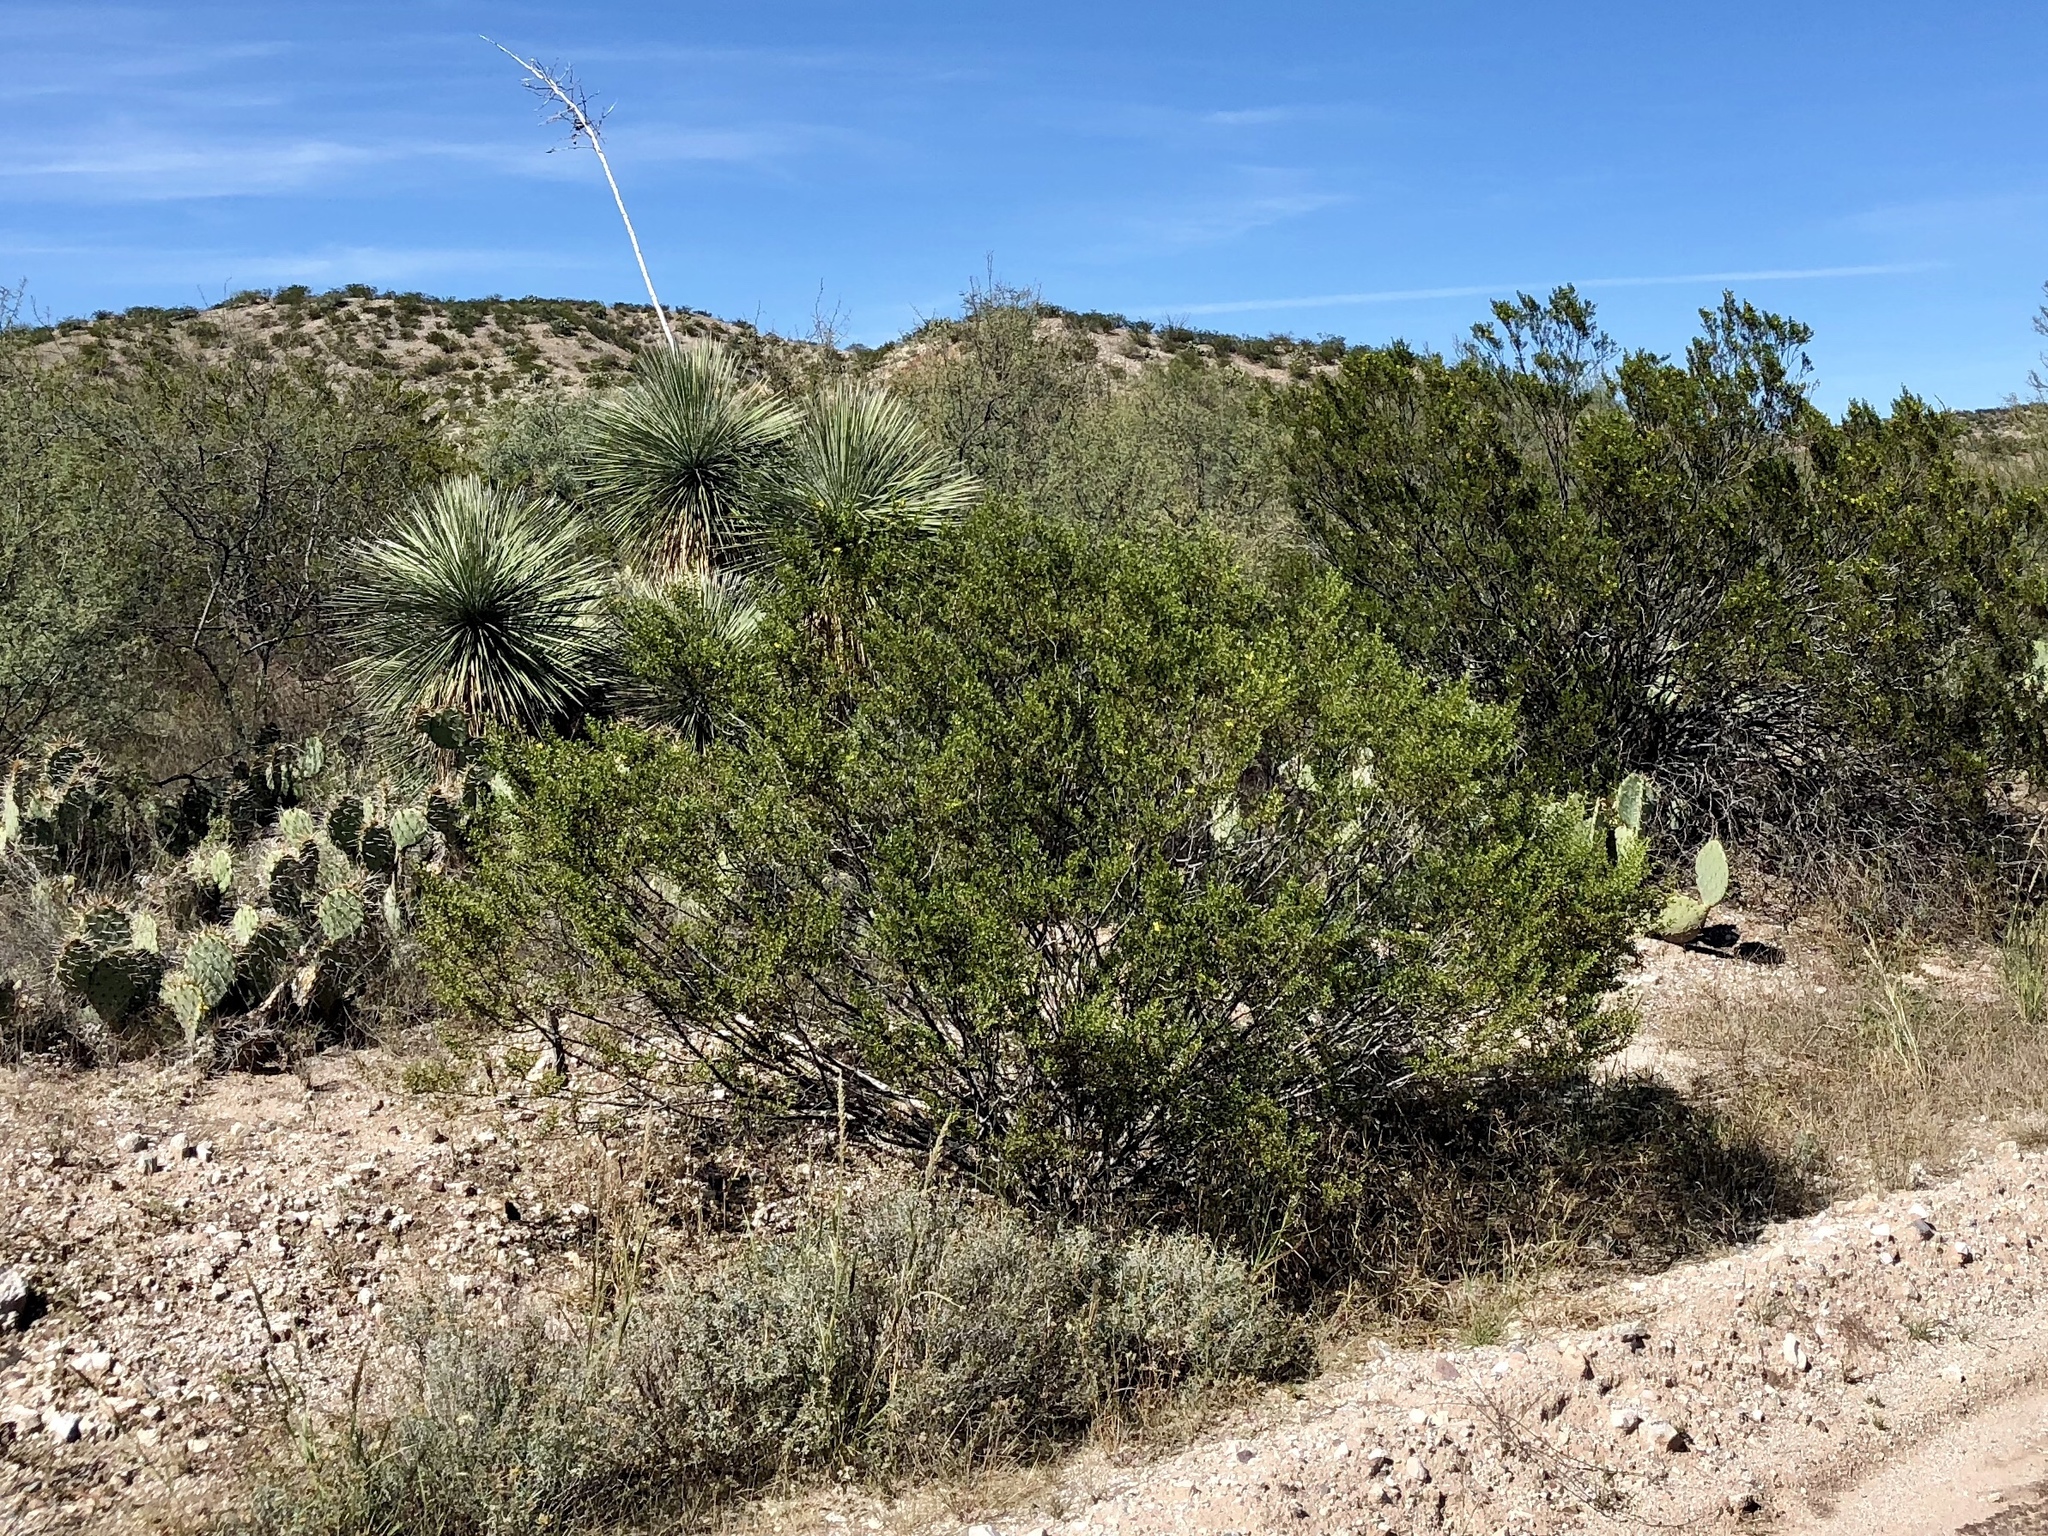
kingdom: Plantae
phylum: Tracheophyta
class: Magnoliopsida
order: Zygophyllales
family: Zygophyllaceae
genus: Larrea
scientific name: Larrea tridentata
